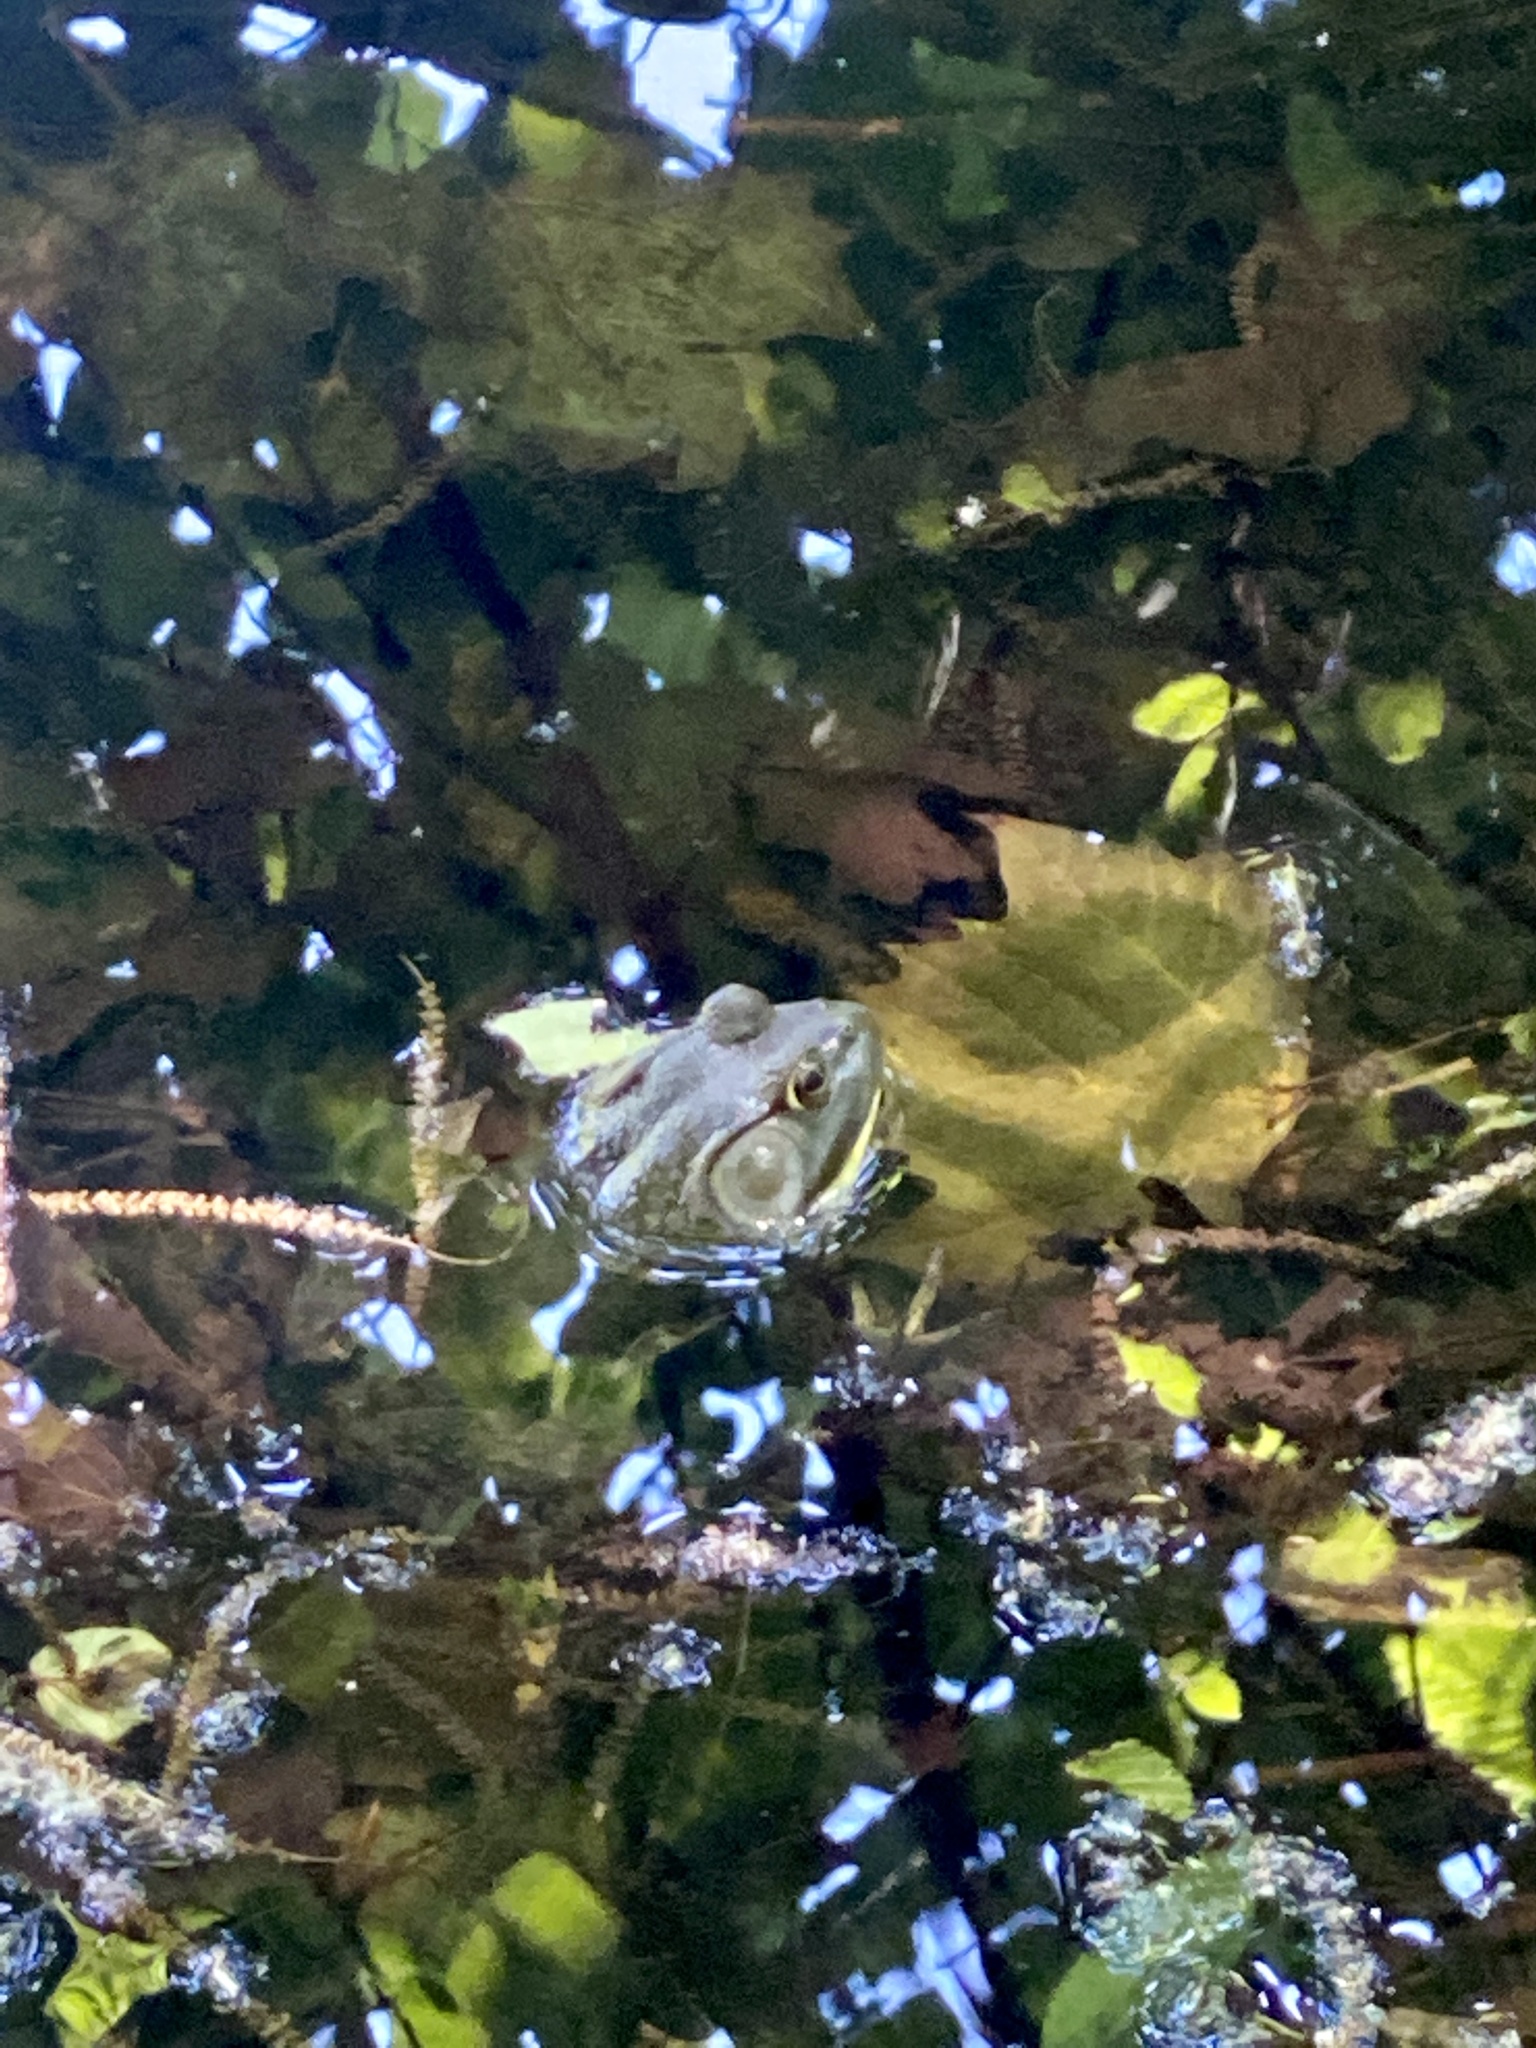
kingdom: Animalia
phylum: Chordata
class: Amphibia
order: Anura
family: Ranidae
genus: Lithobates
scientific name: Lithobates catesbeianus
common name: American bullfrog
